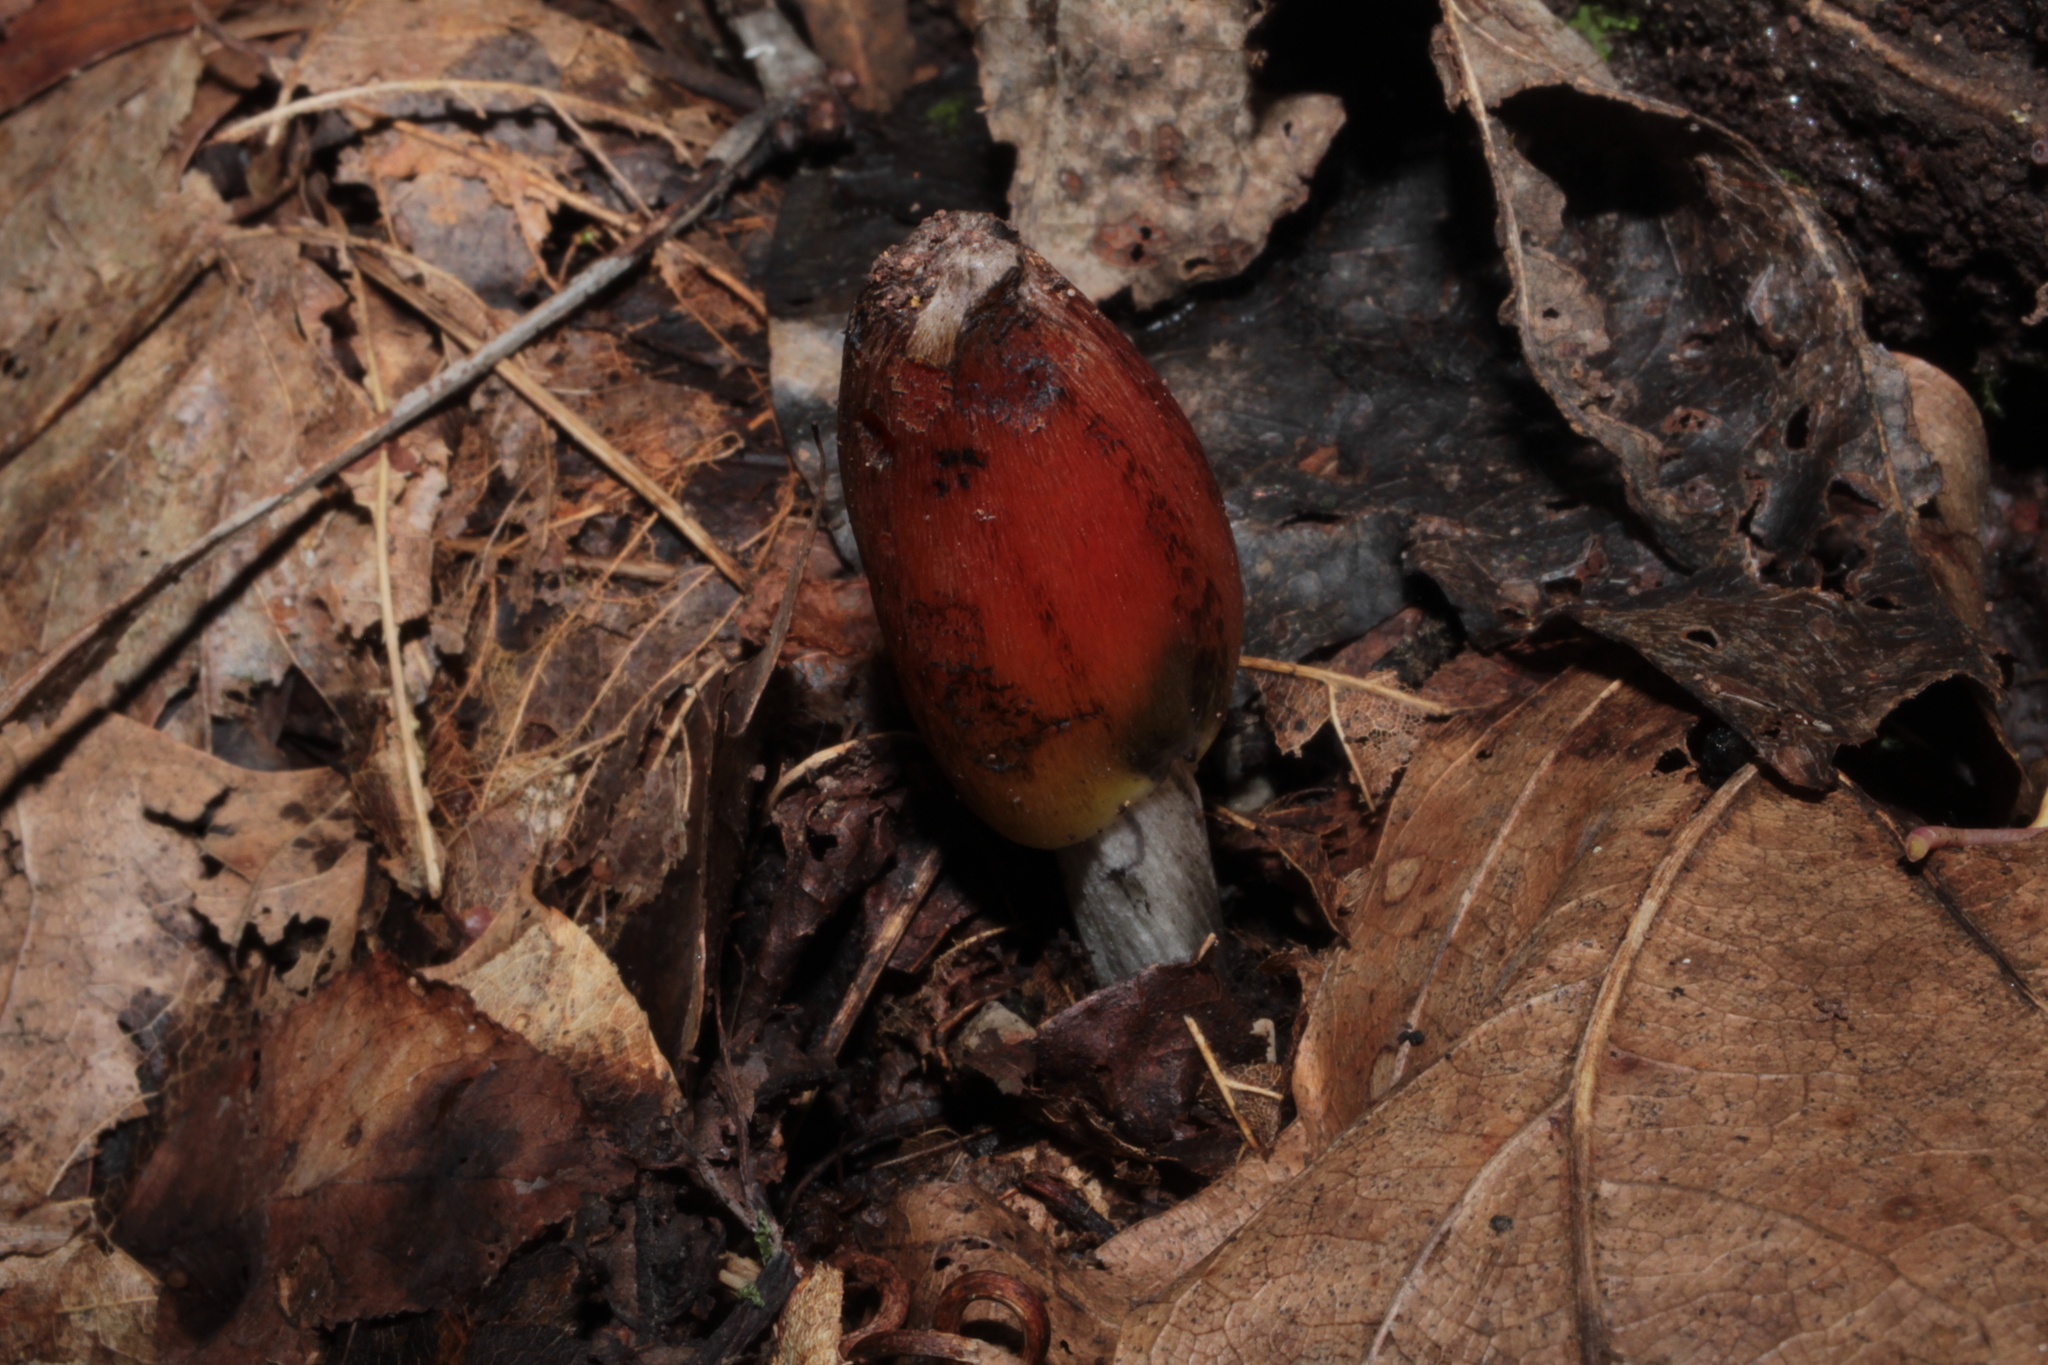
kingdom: Fungi
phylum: Basidiomycota
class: Agaricomycetes
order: Agaricales
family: Hygrophoraceae
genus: Hygrocybe
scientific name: Hygrocybe
